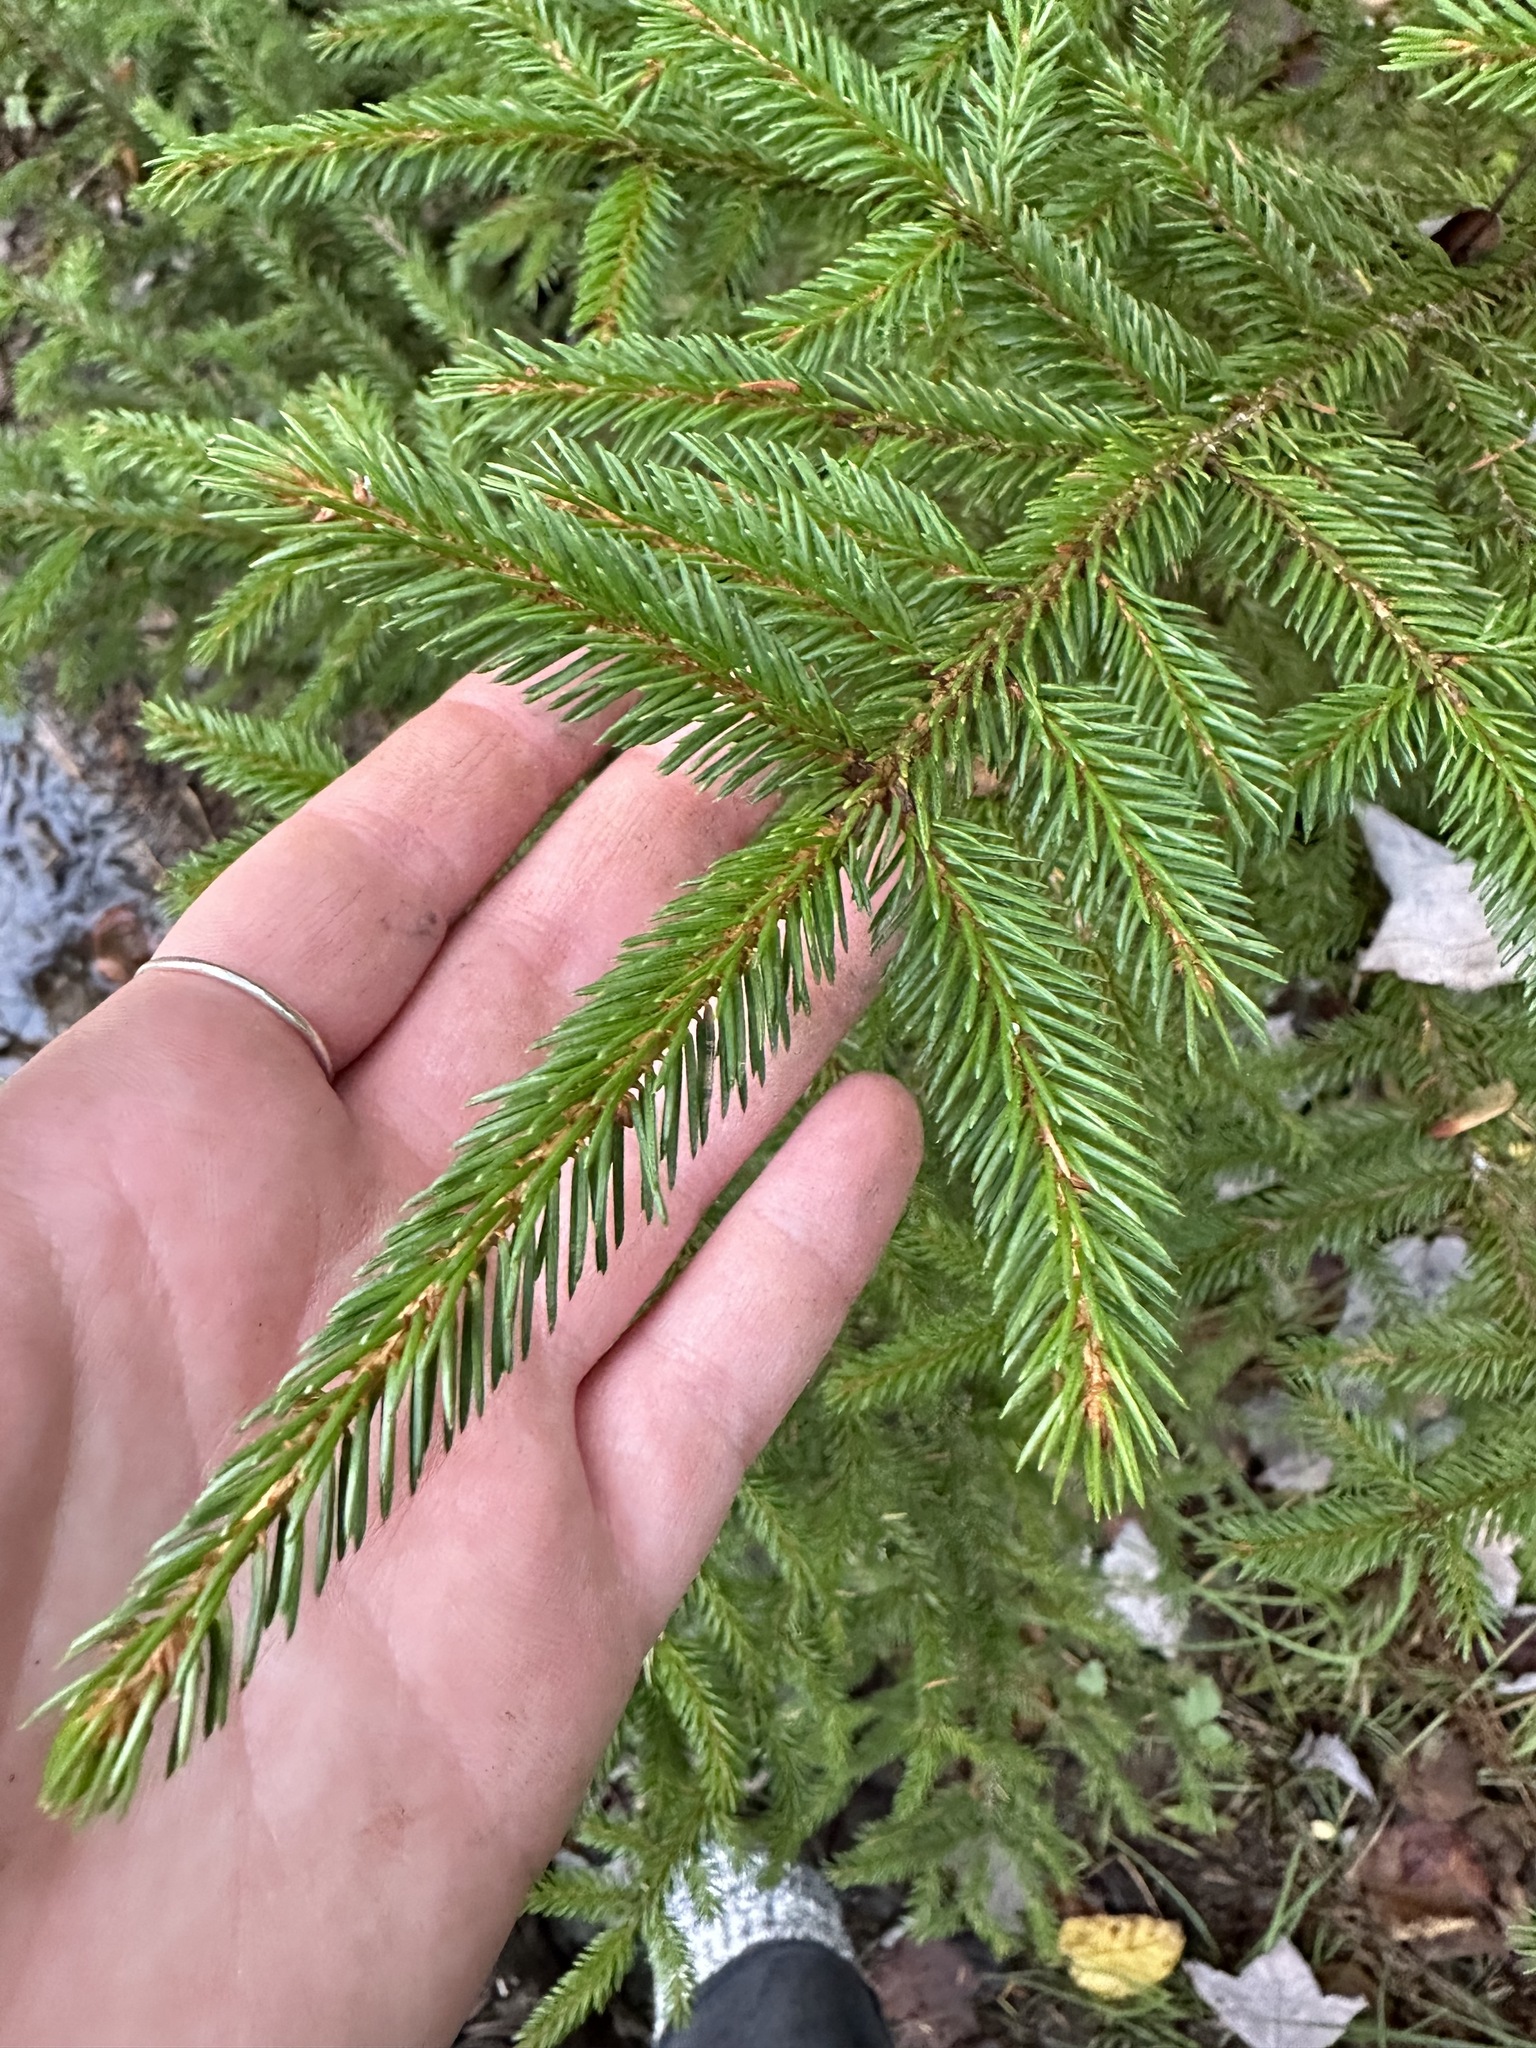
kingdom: Plantae
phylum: Tracheophyta
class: Pinopsida
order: Pinales
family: Pinaceae
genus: Picea
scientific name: Picea glauca
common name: White spruce
